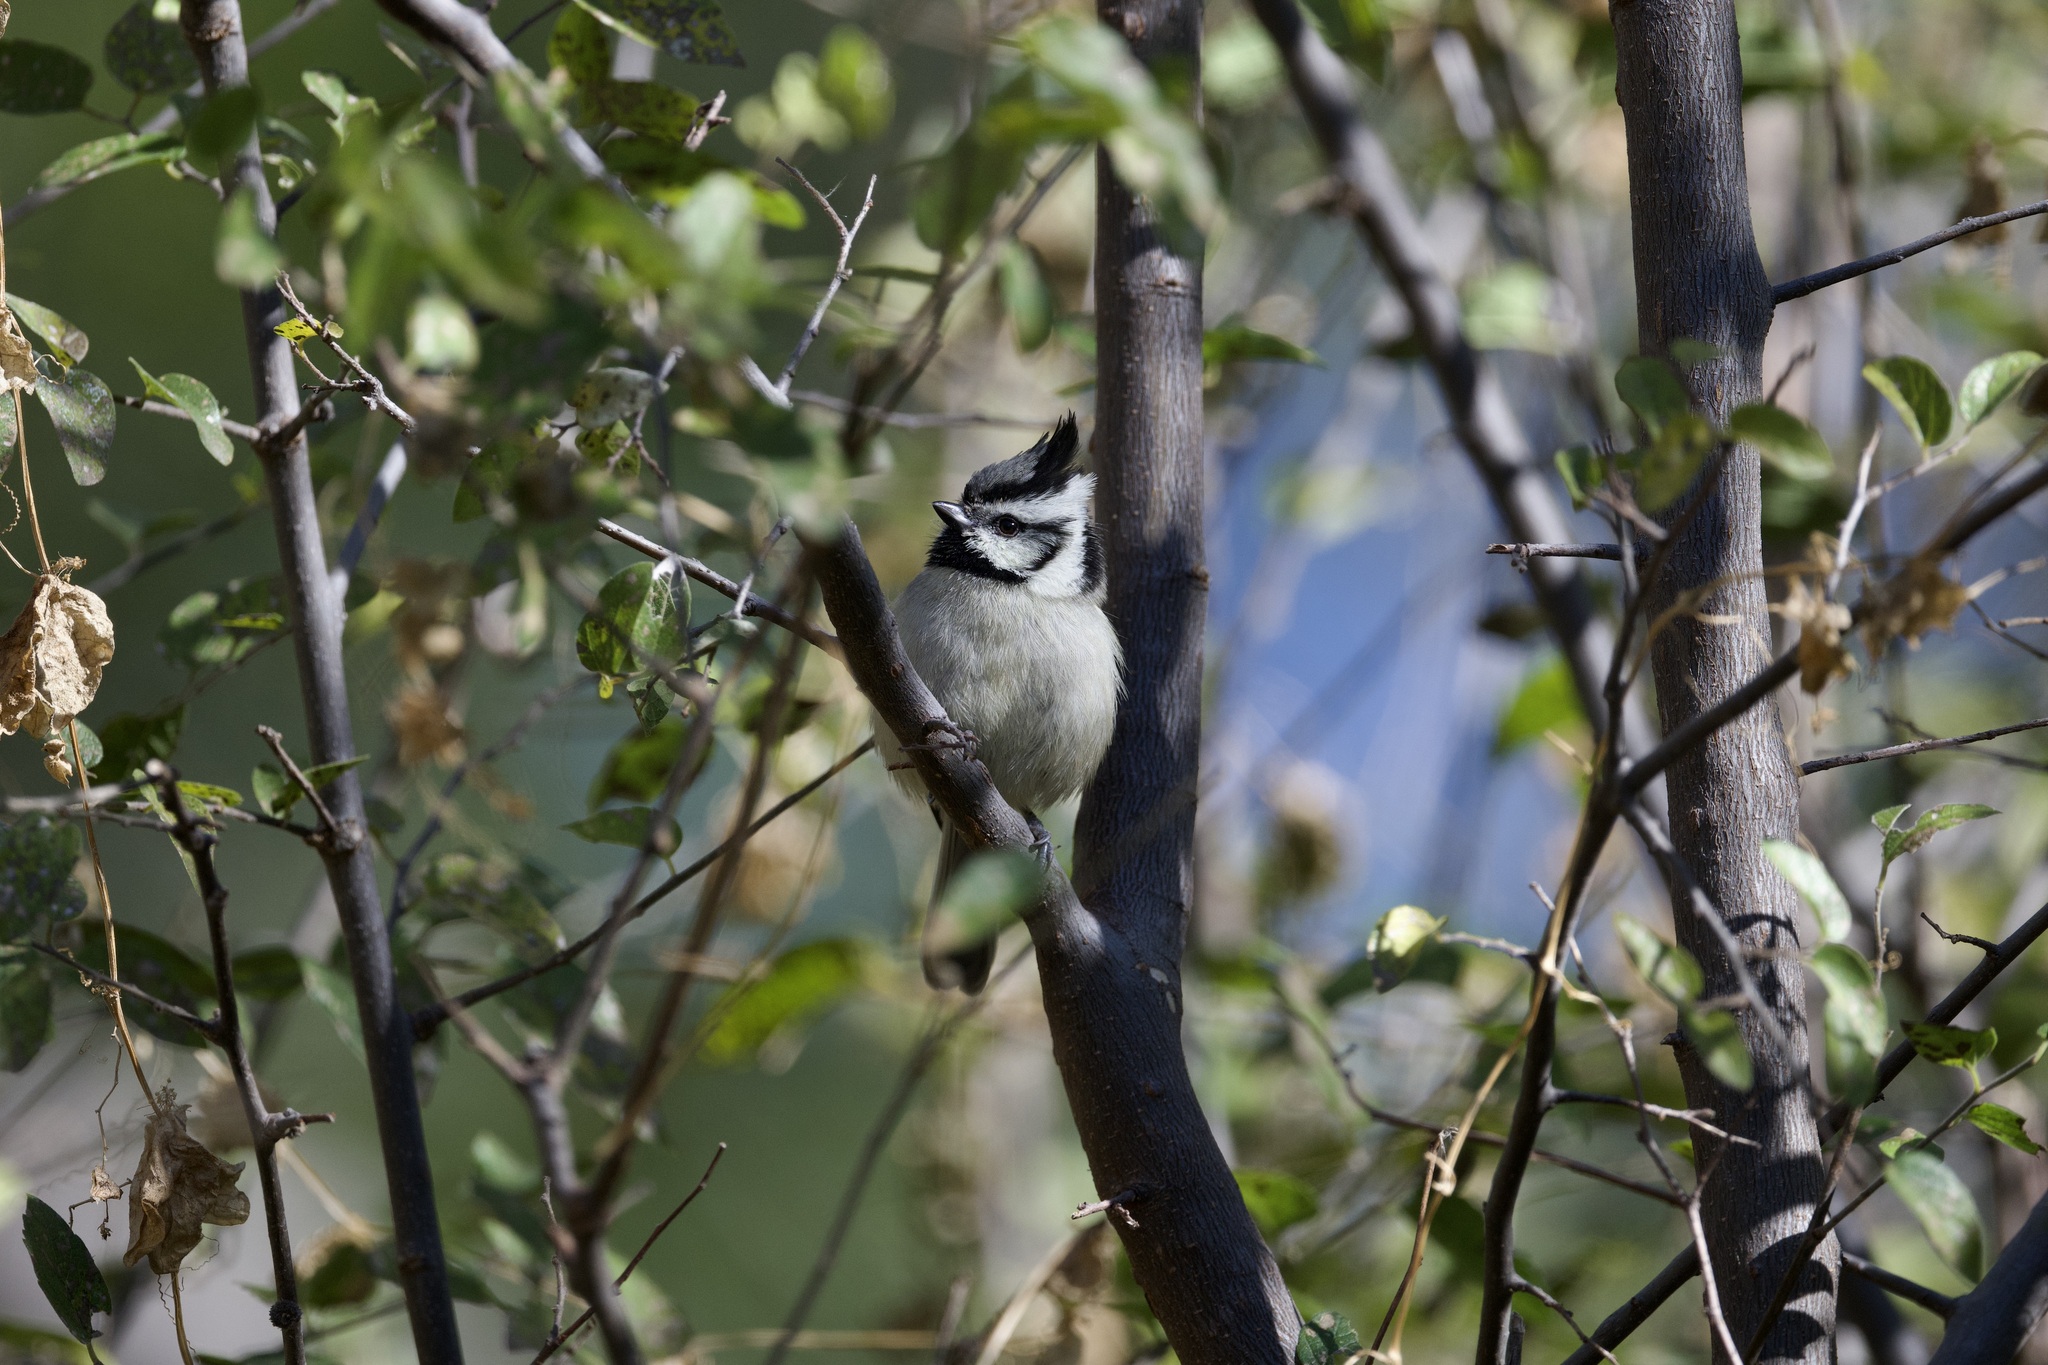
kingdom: Animalia
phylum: Chordata
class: Aves
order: Passeriformes
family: Paridae
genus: Baeolophus
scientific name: Baeolophus wollweberi
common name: Bridled titmouse
